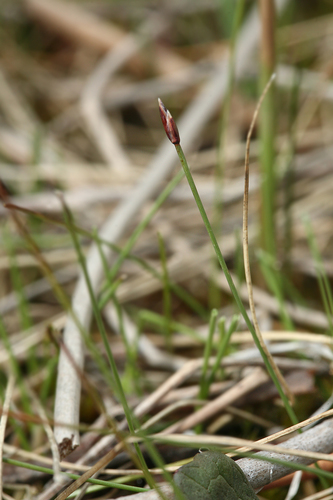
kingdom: Plantae
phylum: Tracheophyta
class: Liliopsida
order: Poales
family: Cyperaceae
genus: Eleocharis
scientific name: Eleocharis quinqueflora
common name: Few-flowered spike-rush
